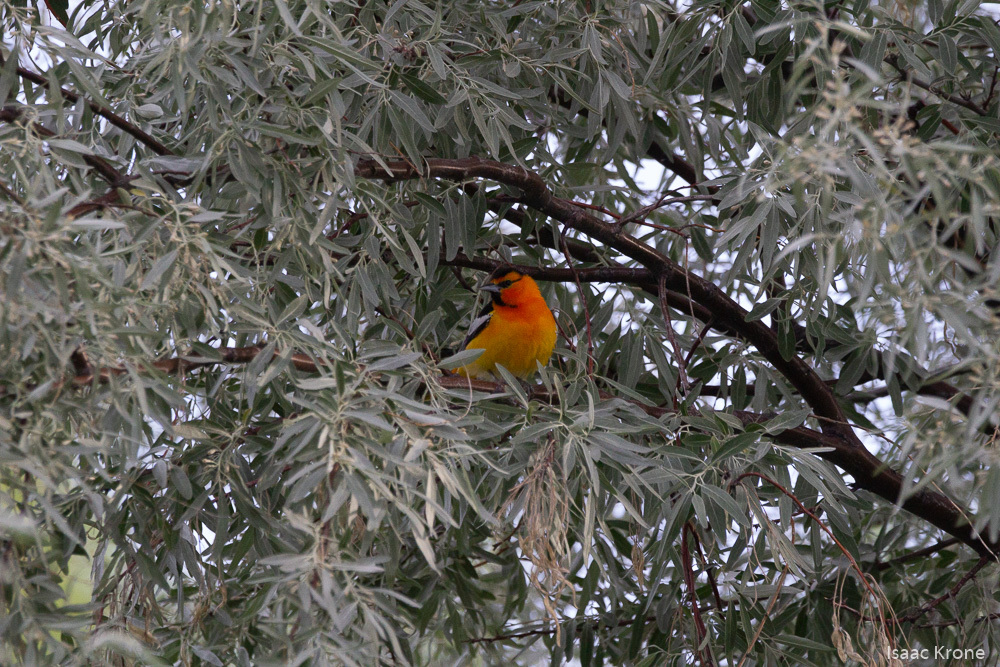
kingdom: Animalia
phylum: Chordata
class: Aves
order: Passeriformes
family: Icteridae
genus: Icterus
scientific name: Icterus bullockii
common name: Bullock's oriole
